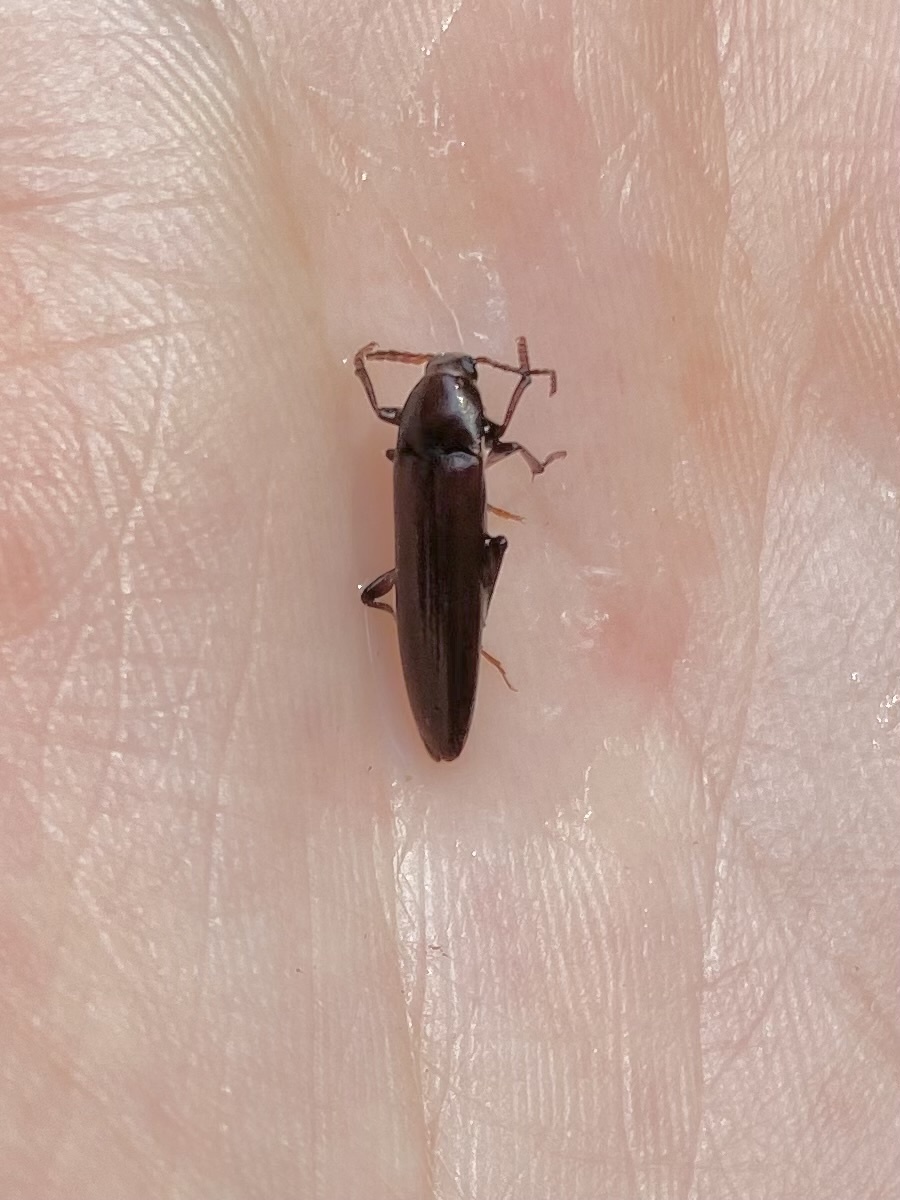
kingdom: Animalia
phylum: Arthropoda
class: Insecta
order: Coleoptera
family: Melandryidae
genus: Enchodes
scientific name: Enchodes sericea
